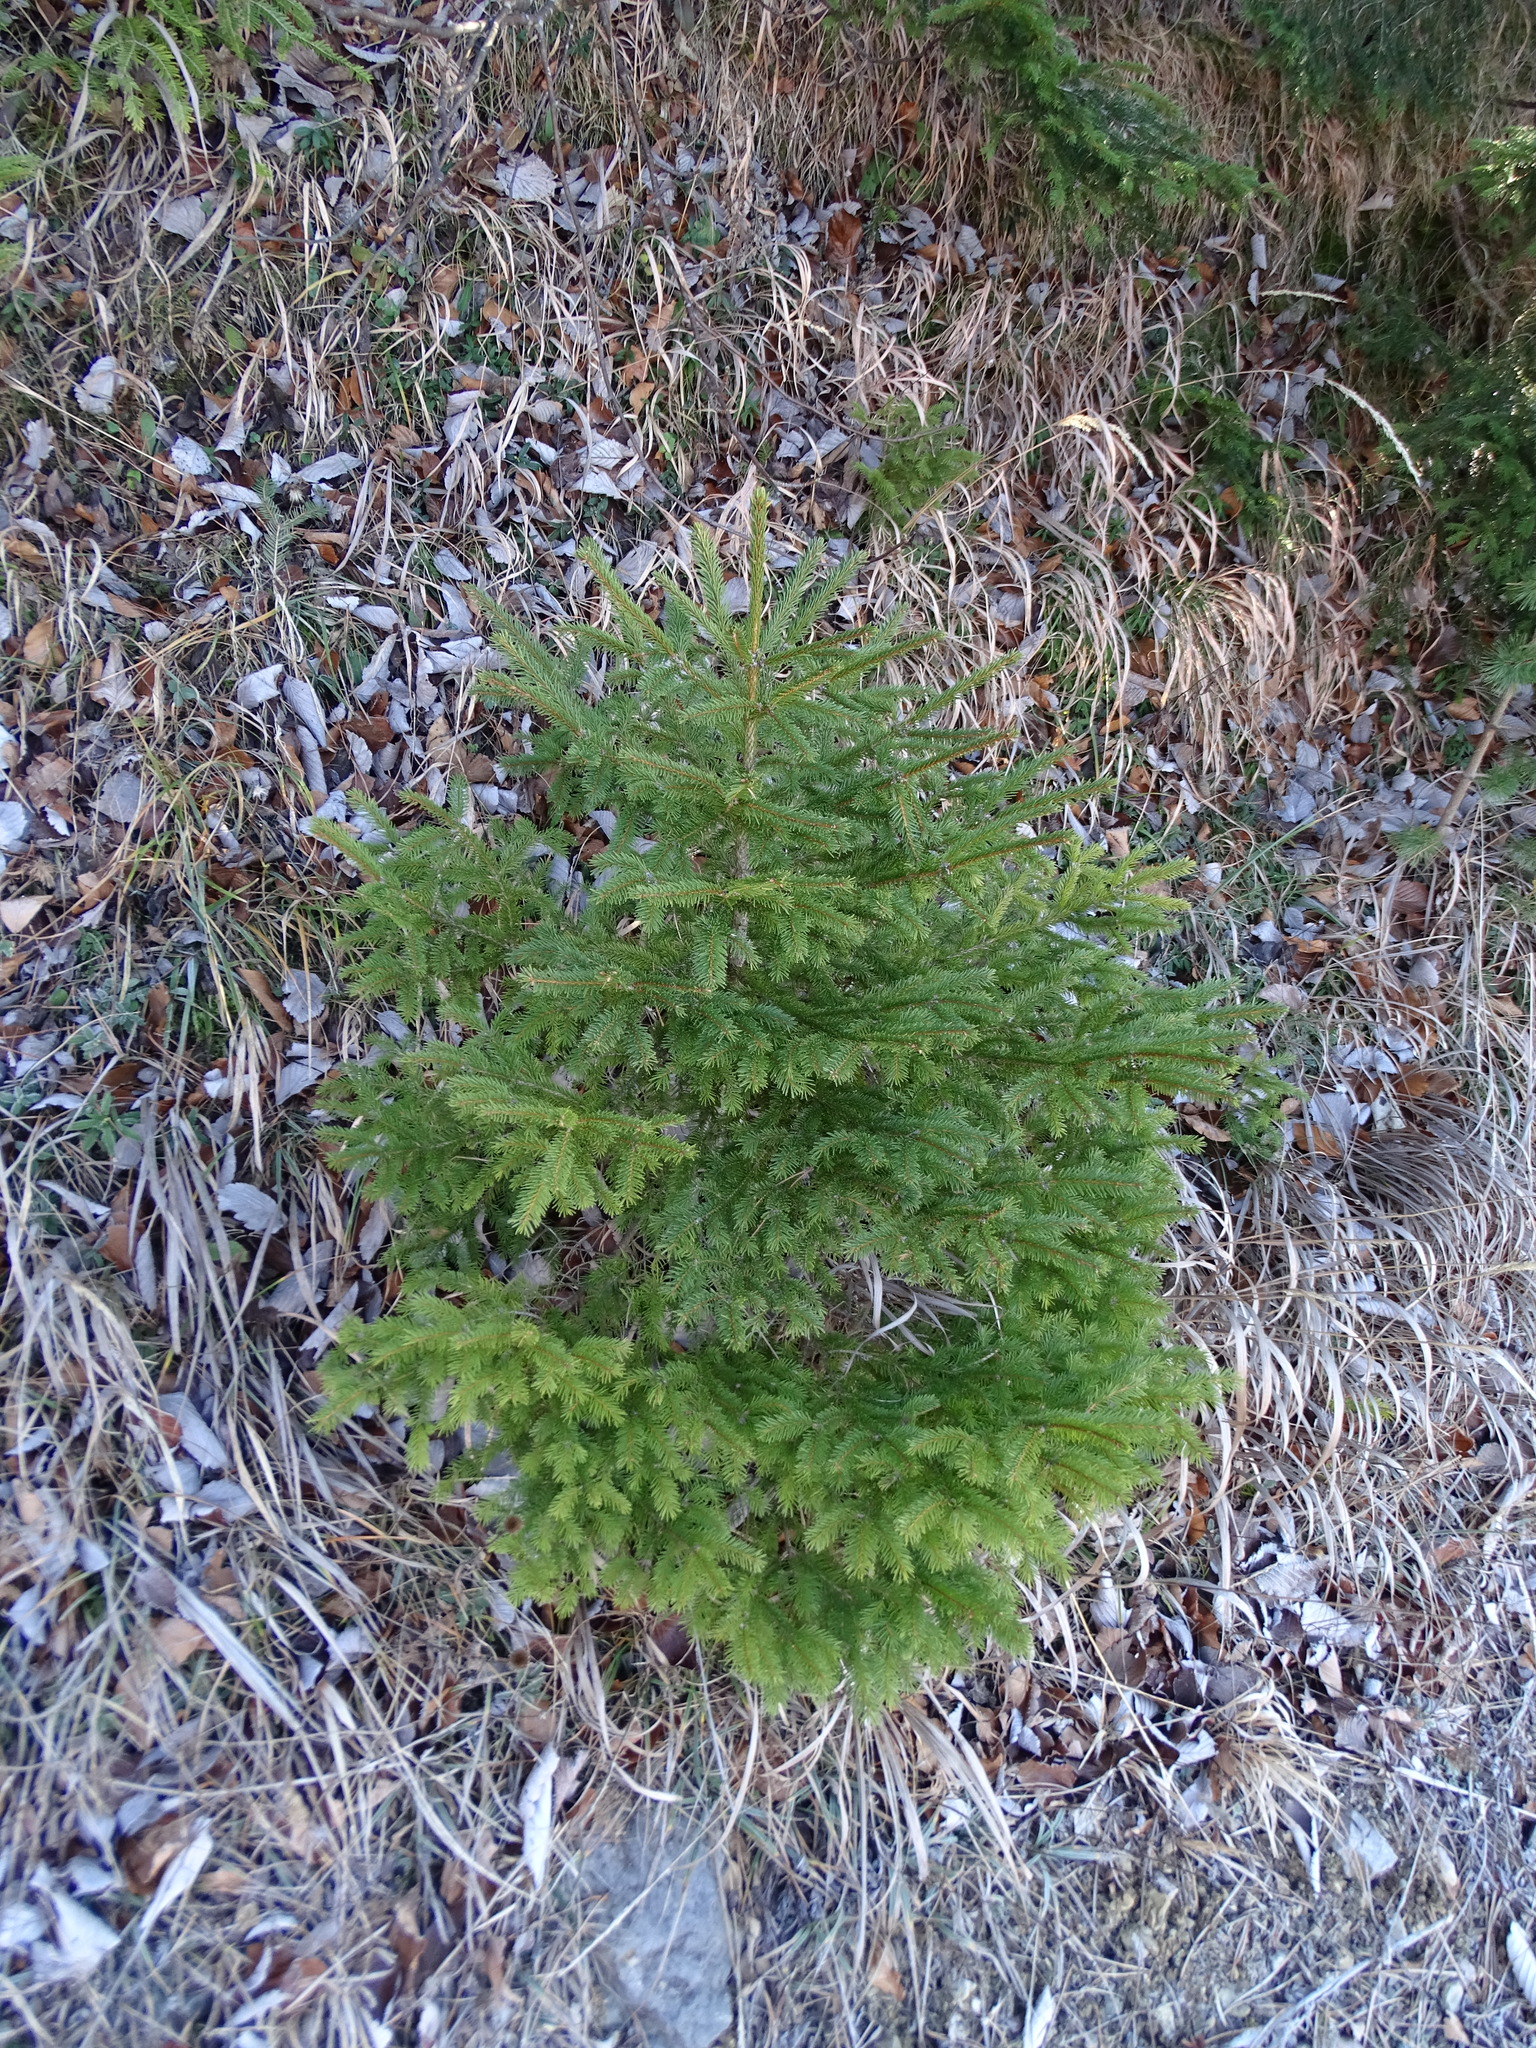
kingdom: Plantae
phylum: Tracheophyta
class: Pinopsida
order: Pinales
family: Pinaceae
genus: Picea
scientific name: Picea abies
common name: Norway spruce
